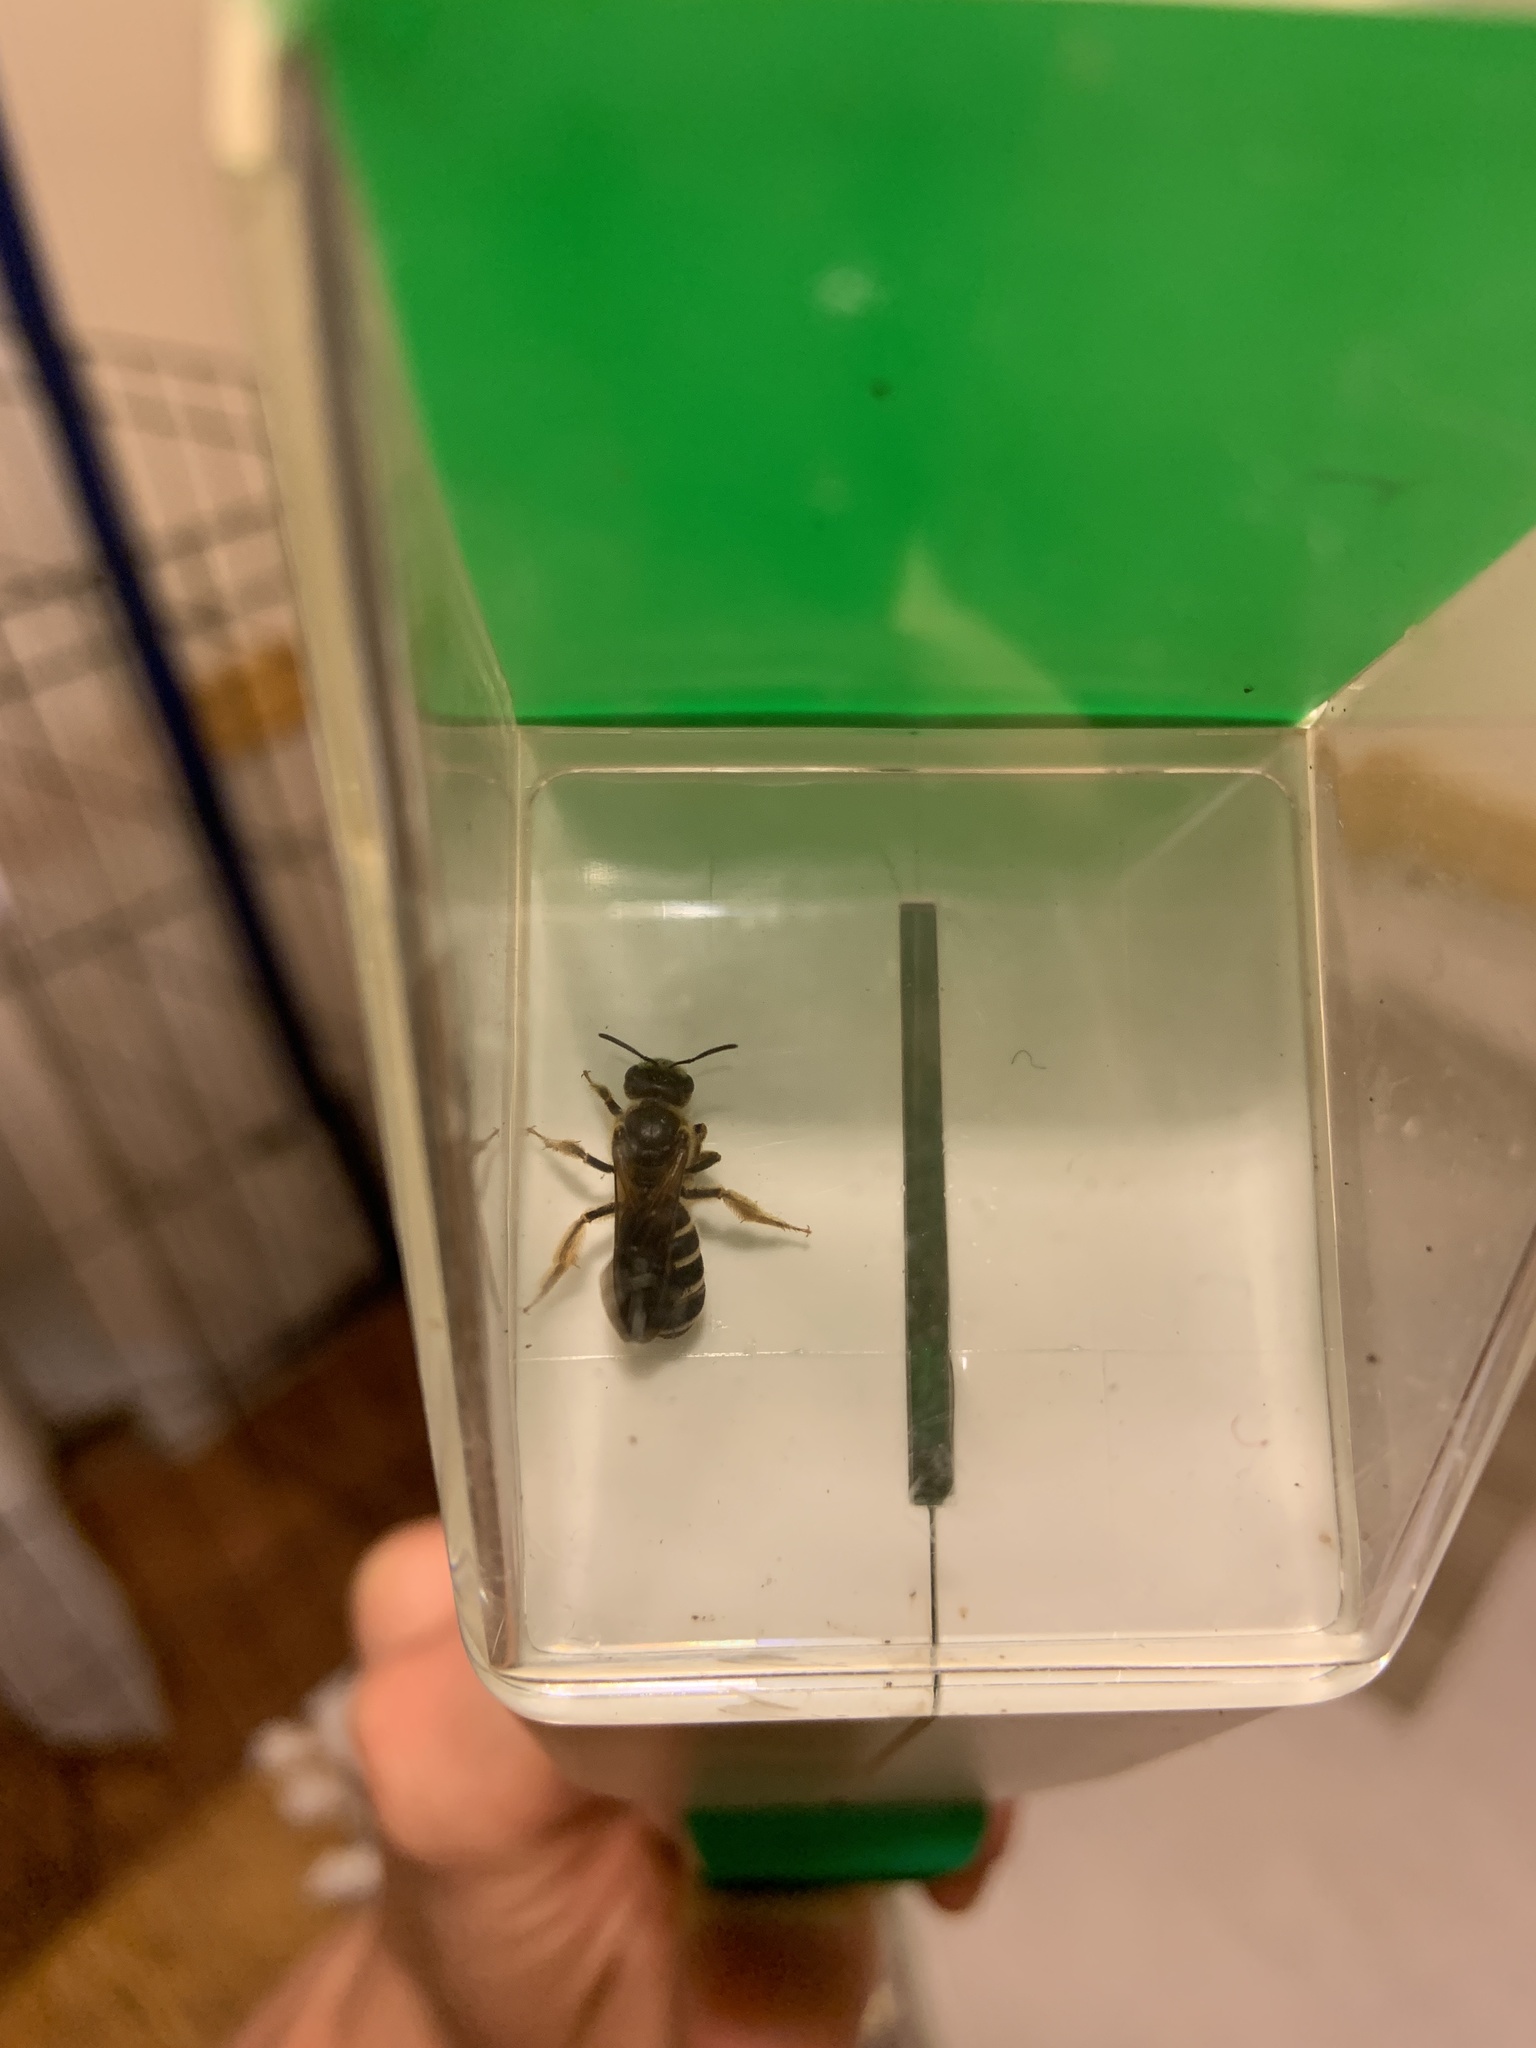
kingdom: Animalia
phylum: Arthropoda
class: Insecta
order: Hymenoptera
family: Halictidae
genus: Halictus
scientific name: Halictus rubicundus
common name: Orange-legged furrow bee
